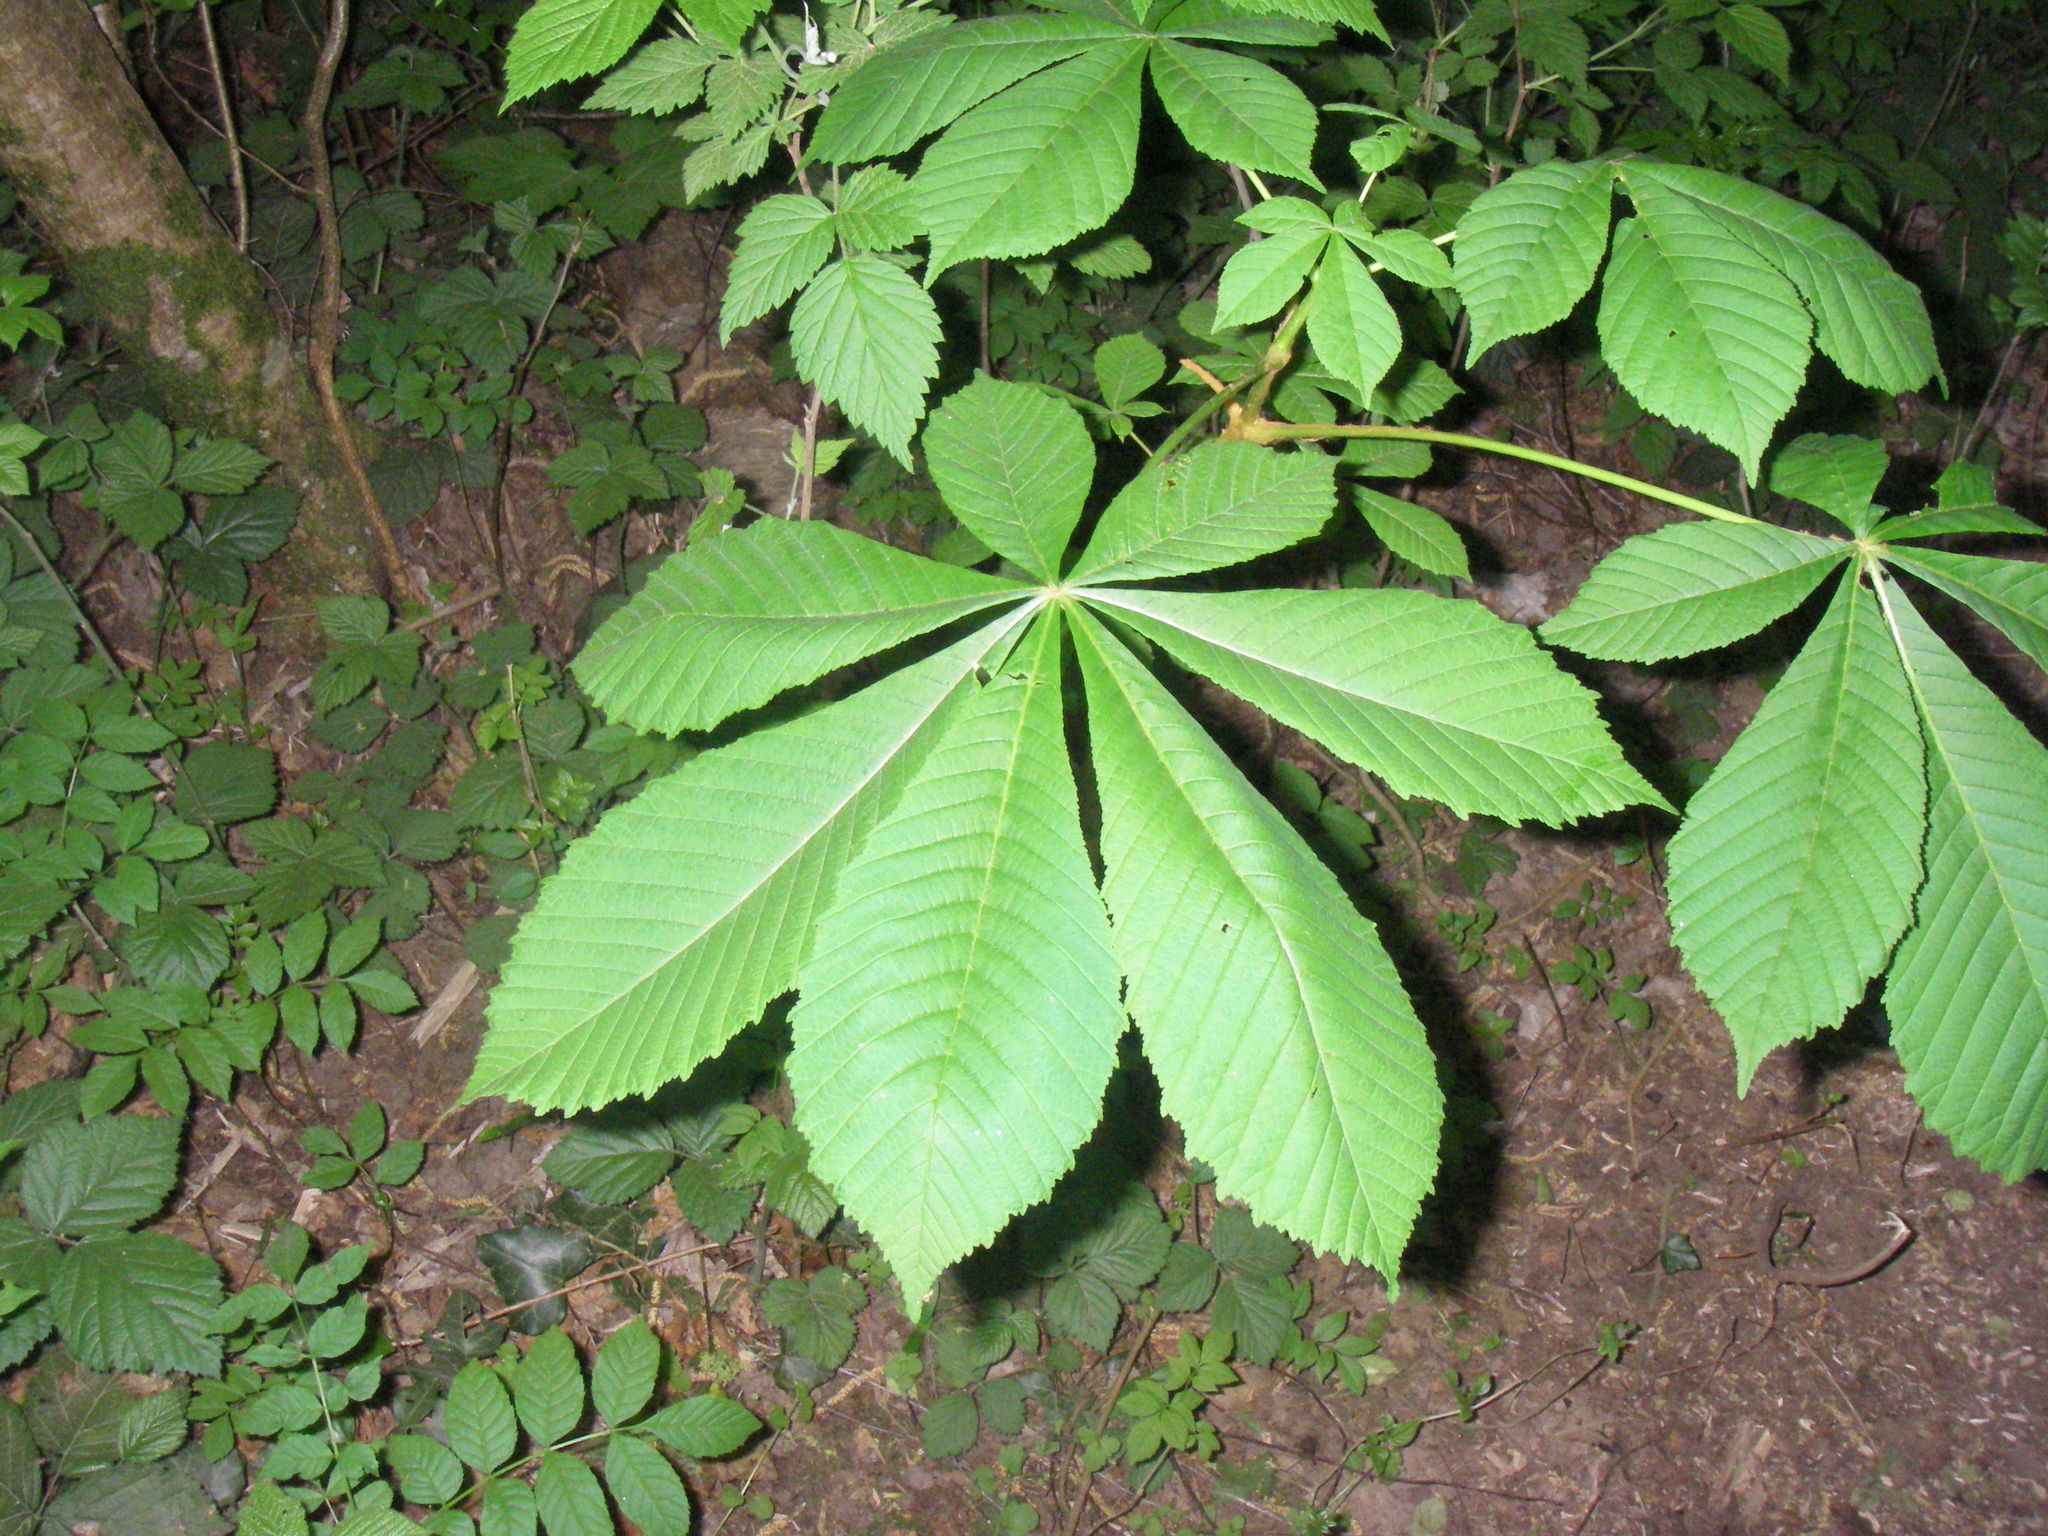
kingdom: Plantae
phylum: Tracheophyta
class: Magnoliopsida
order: Sapindales
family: Sapindaceae
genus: Aesculus
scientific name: Aesculus hippocastanum
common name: Horse-chestnut
